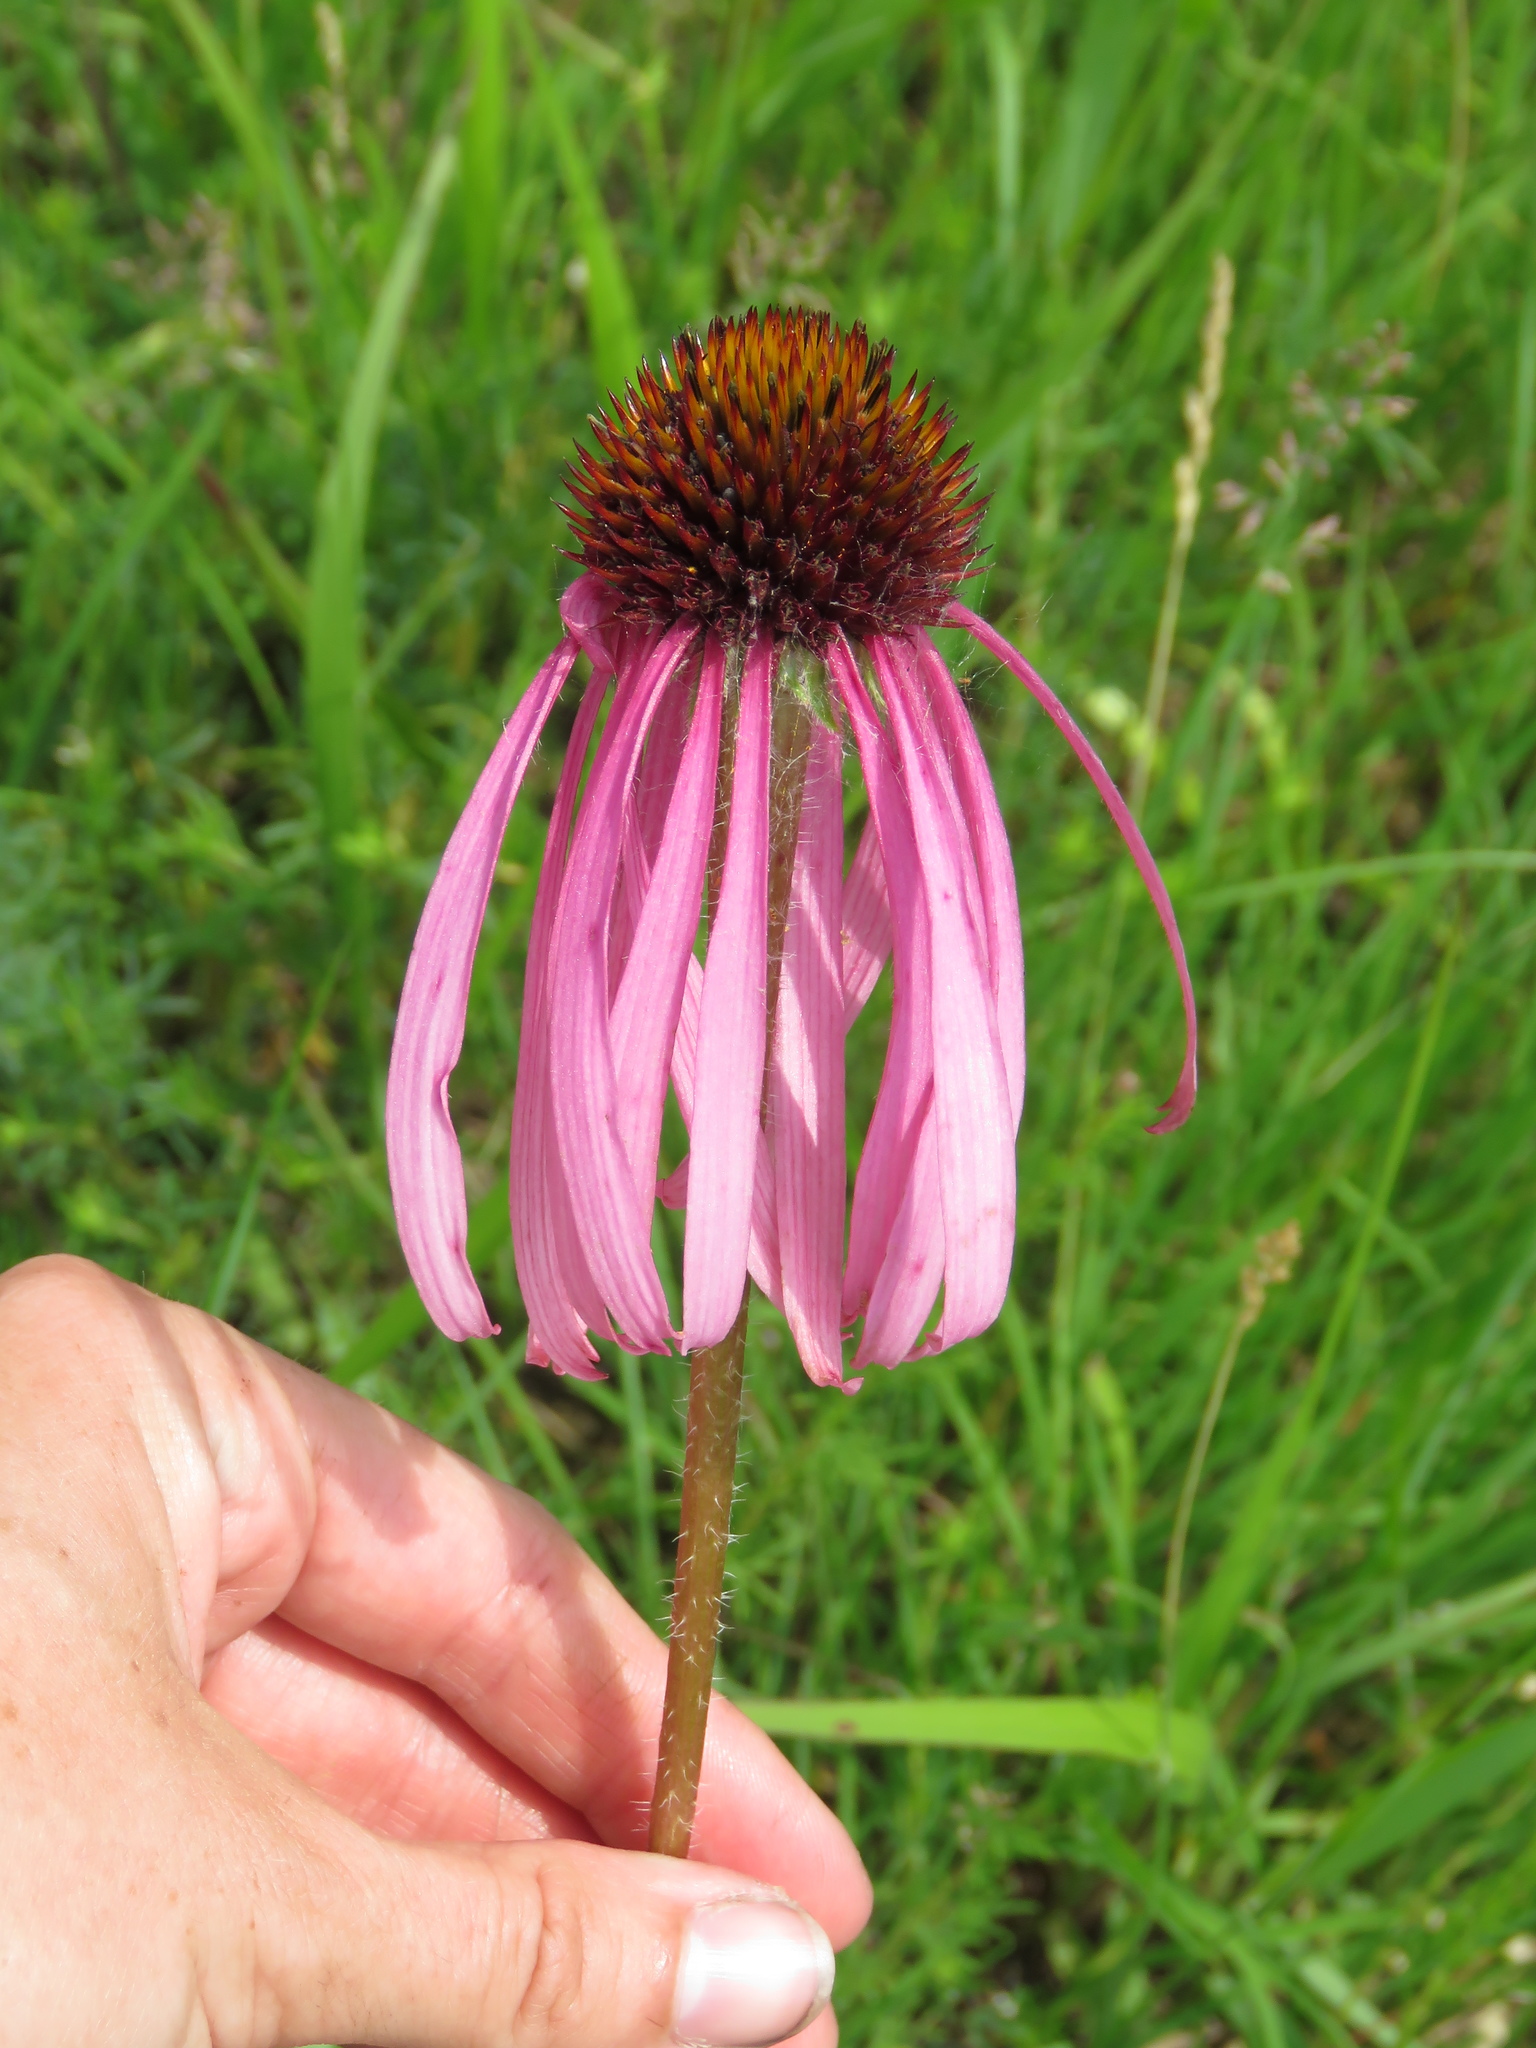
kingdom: Plantae
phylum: Tracheophyta
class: Magnoliopsida
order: Asterales
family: Asteraceae
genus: Echinacea
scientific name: Echinacea pallida
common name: Pale echinacea
